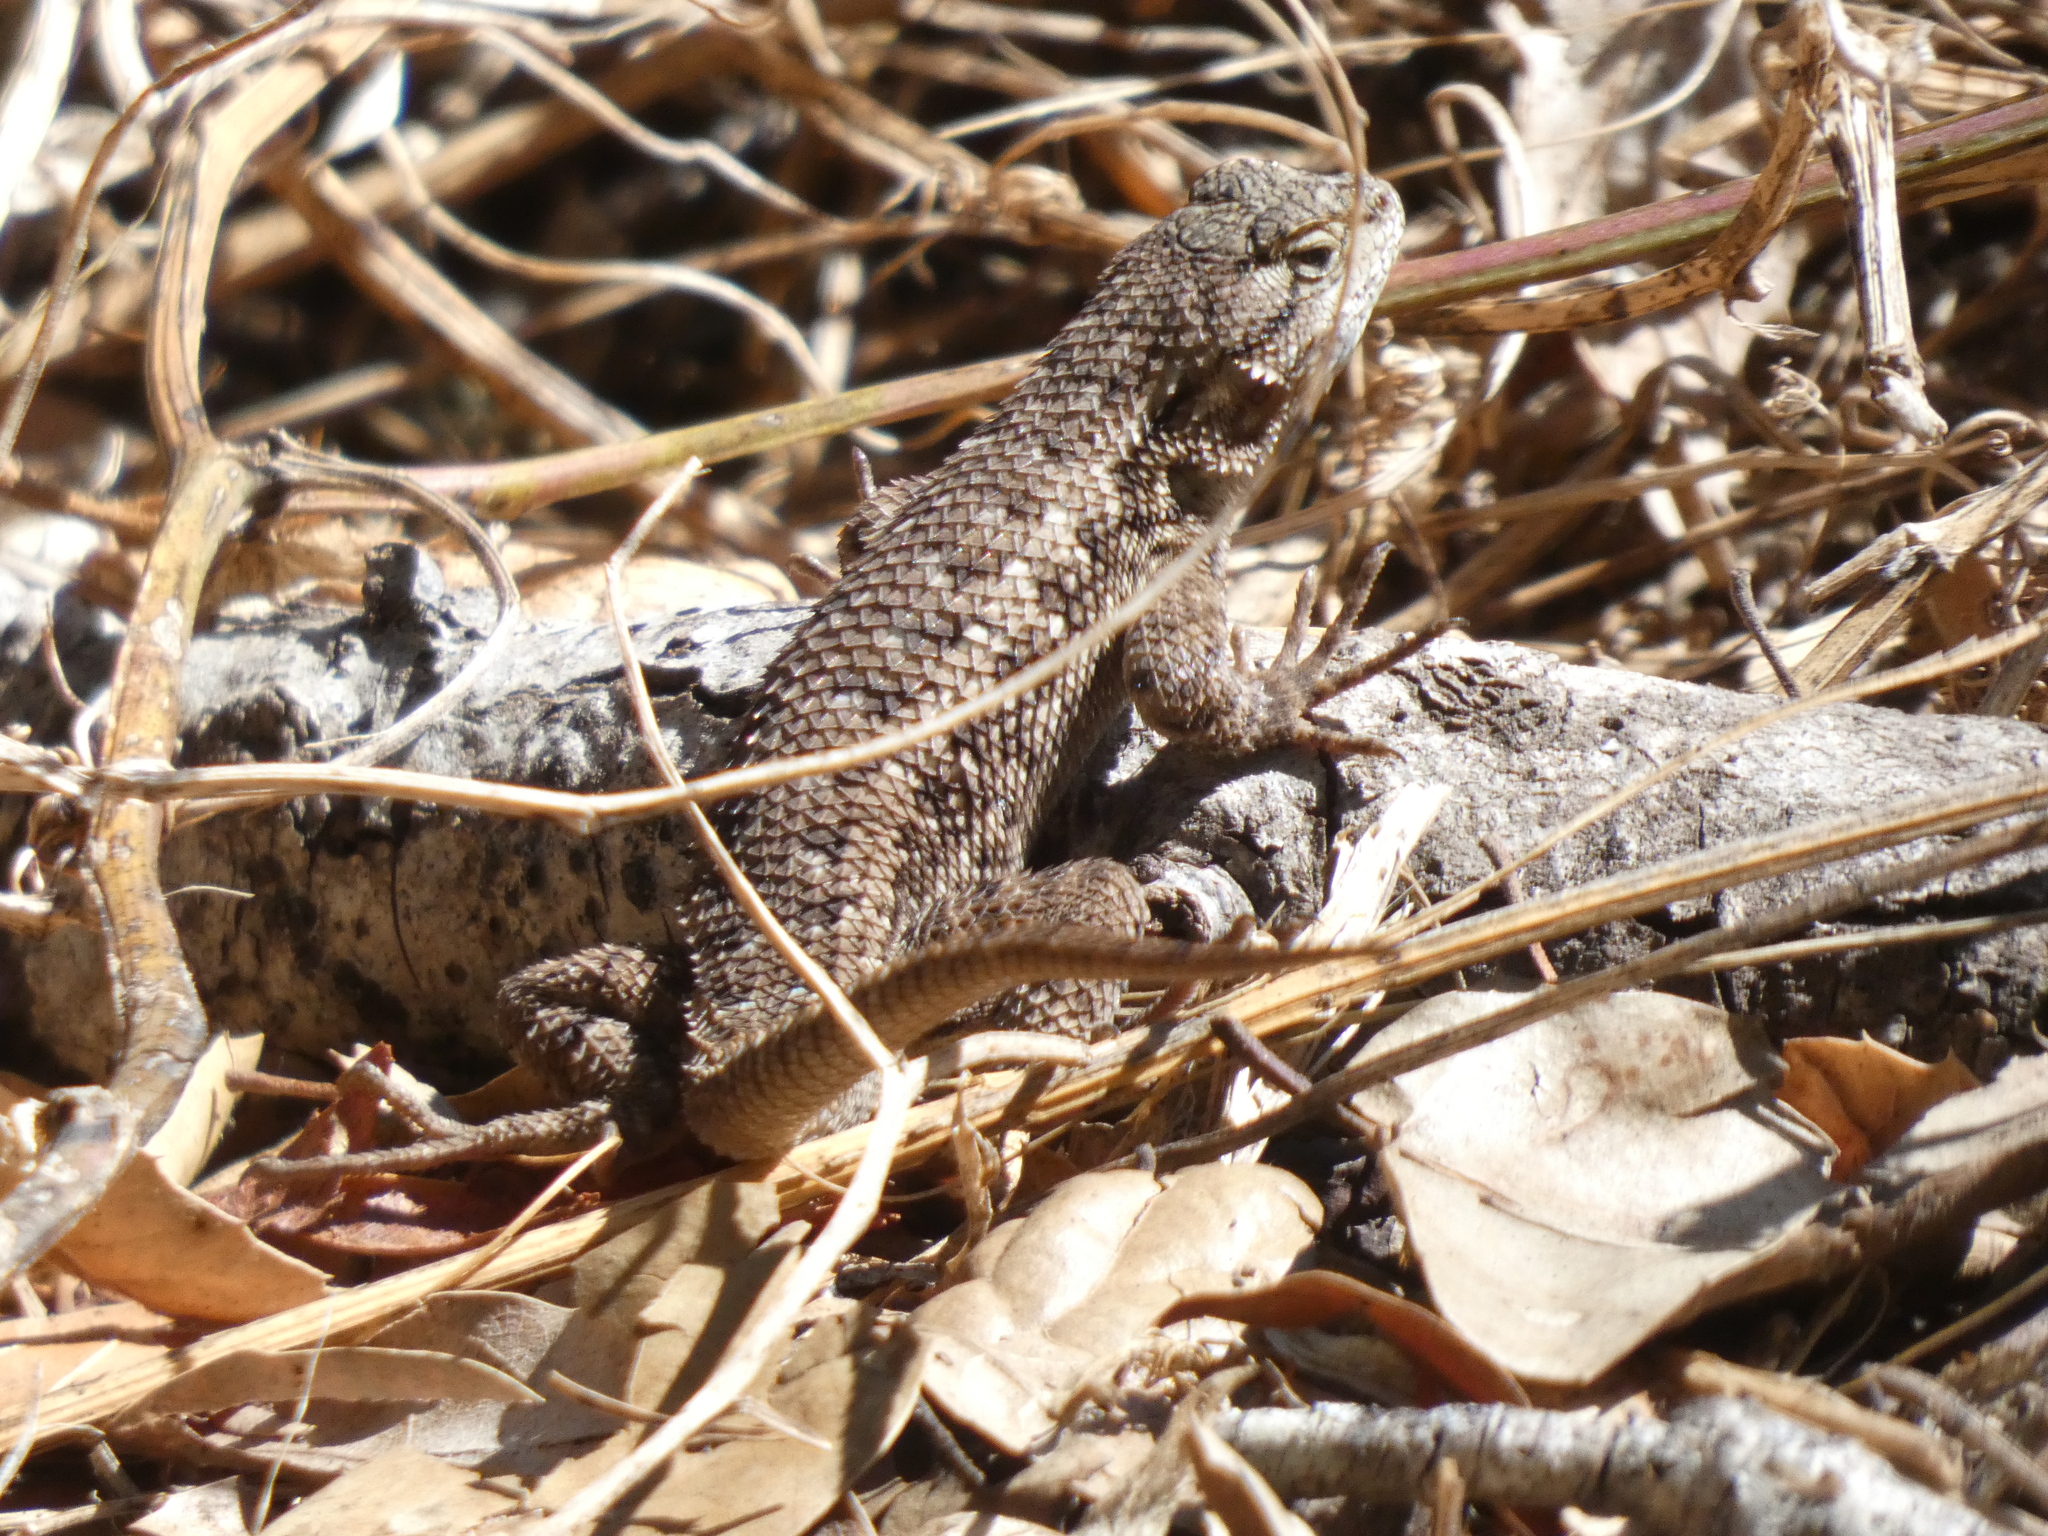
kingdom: Animalia
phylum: Chordata
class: Squamata
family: Phrynosomatidae
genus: Sceloporus
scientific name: Sceloporus occidentalis
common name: Western fence lizard
